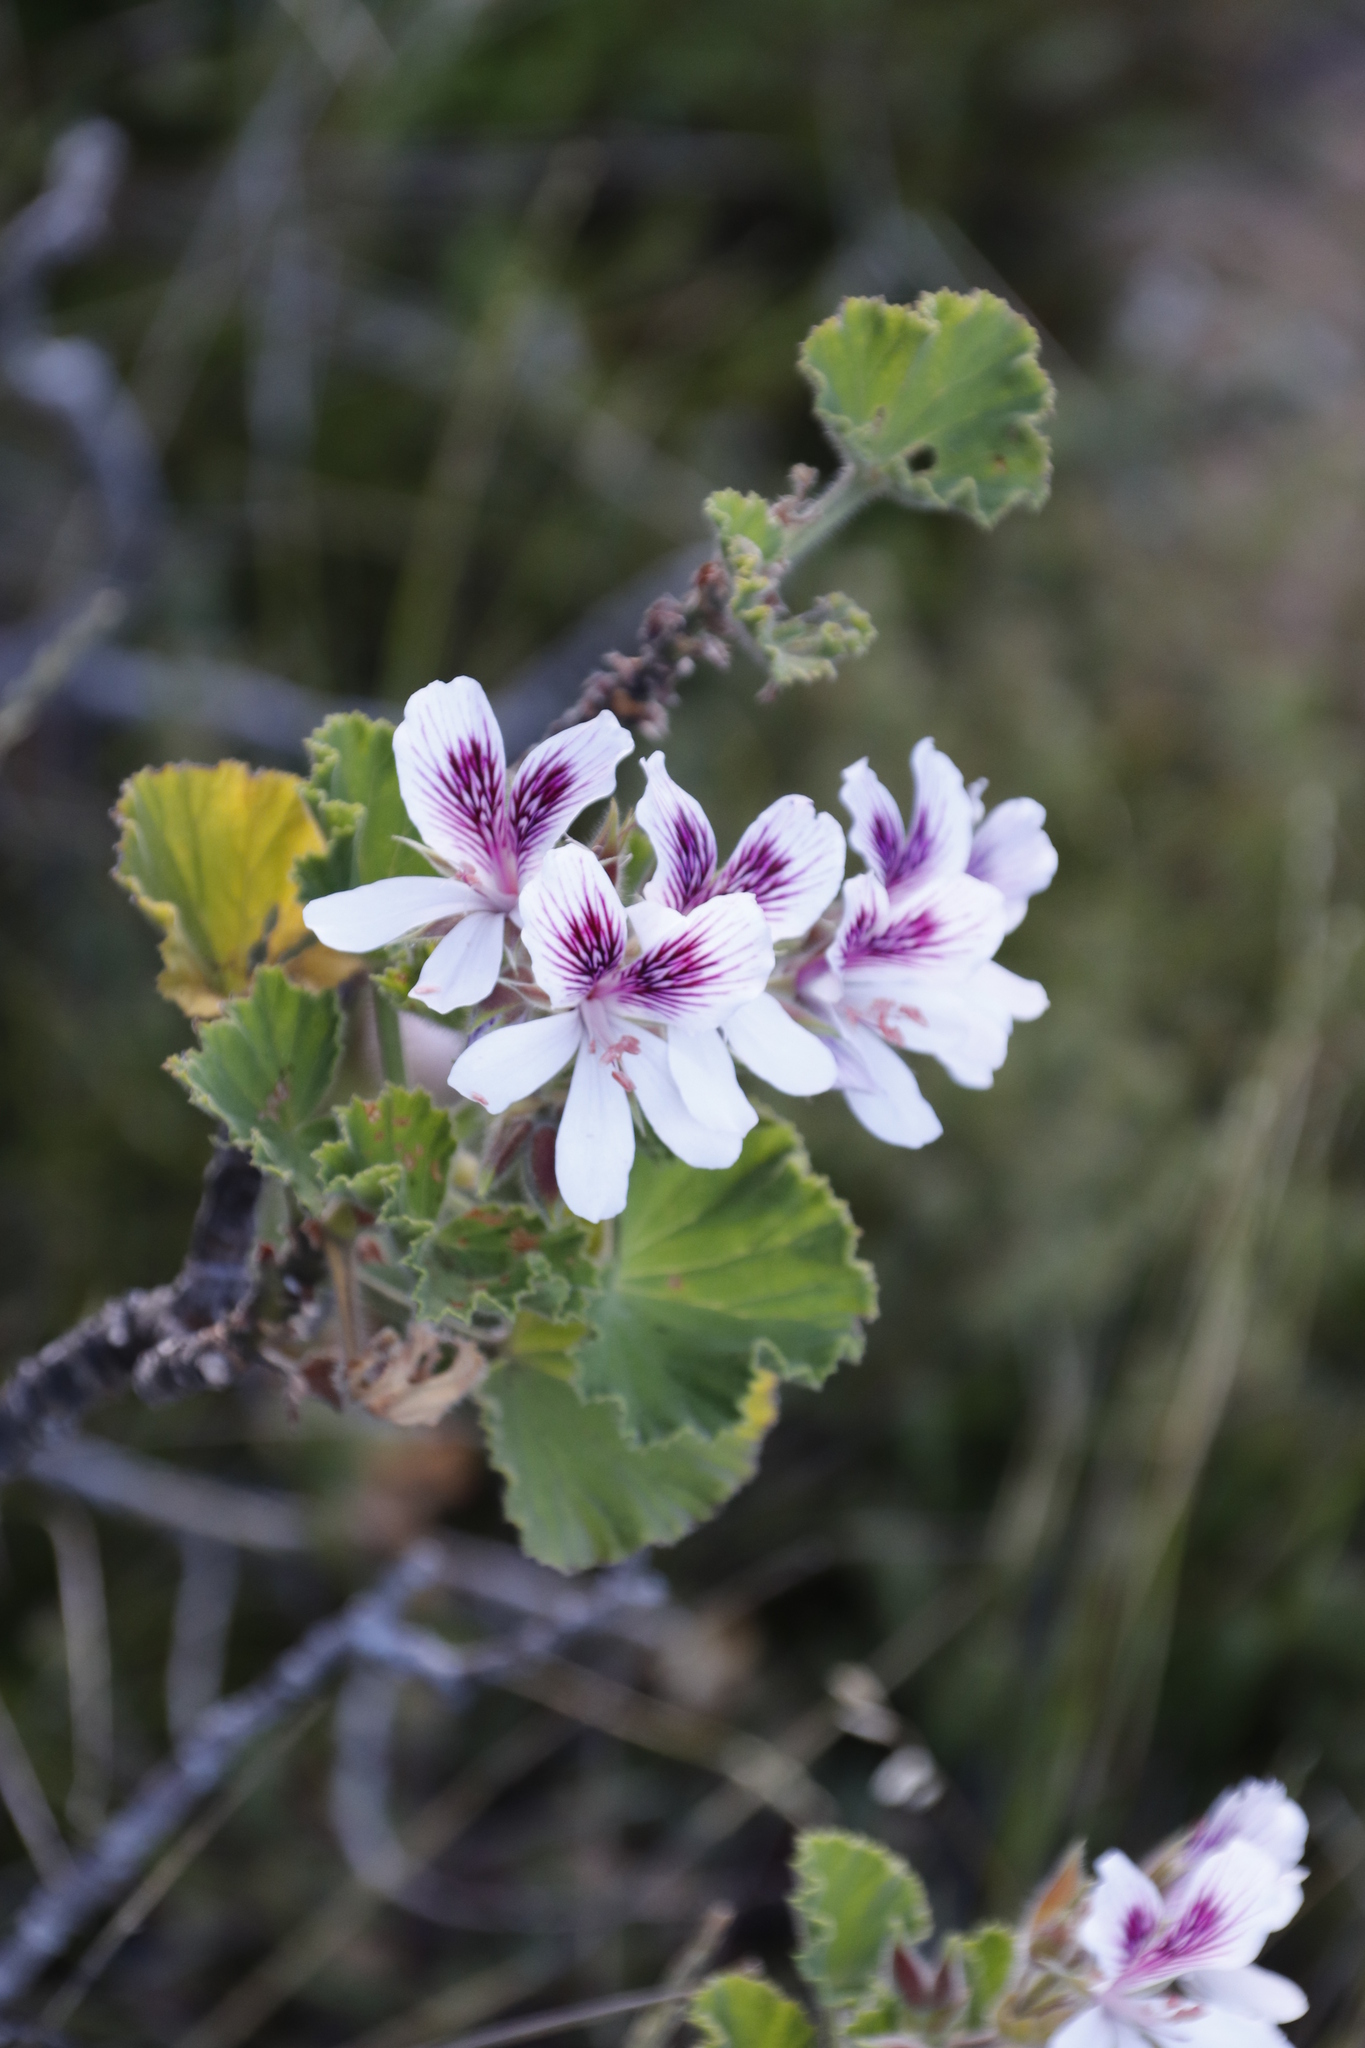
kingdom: Plantae
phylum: Tracheophyta
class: Magnoliopsida
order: Geraniales
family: Geraniaceae
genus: Pelargonium
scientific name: Pelargonium cucullatum
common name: Tree pelargonium
